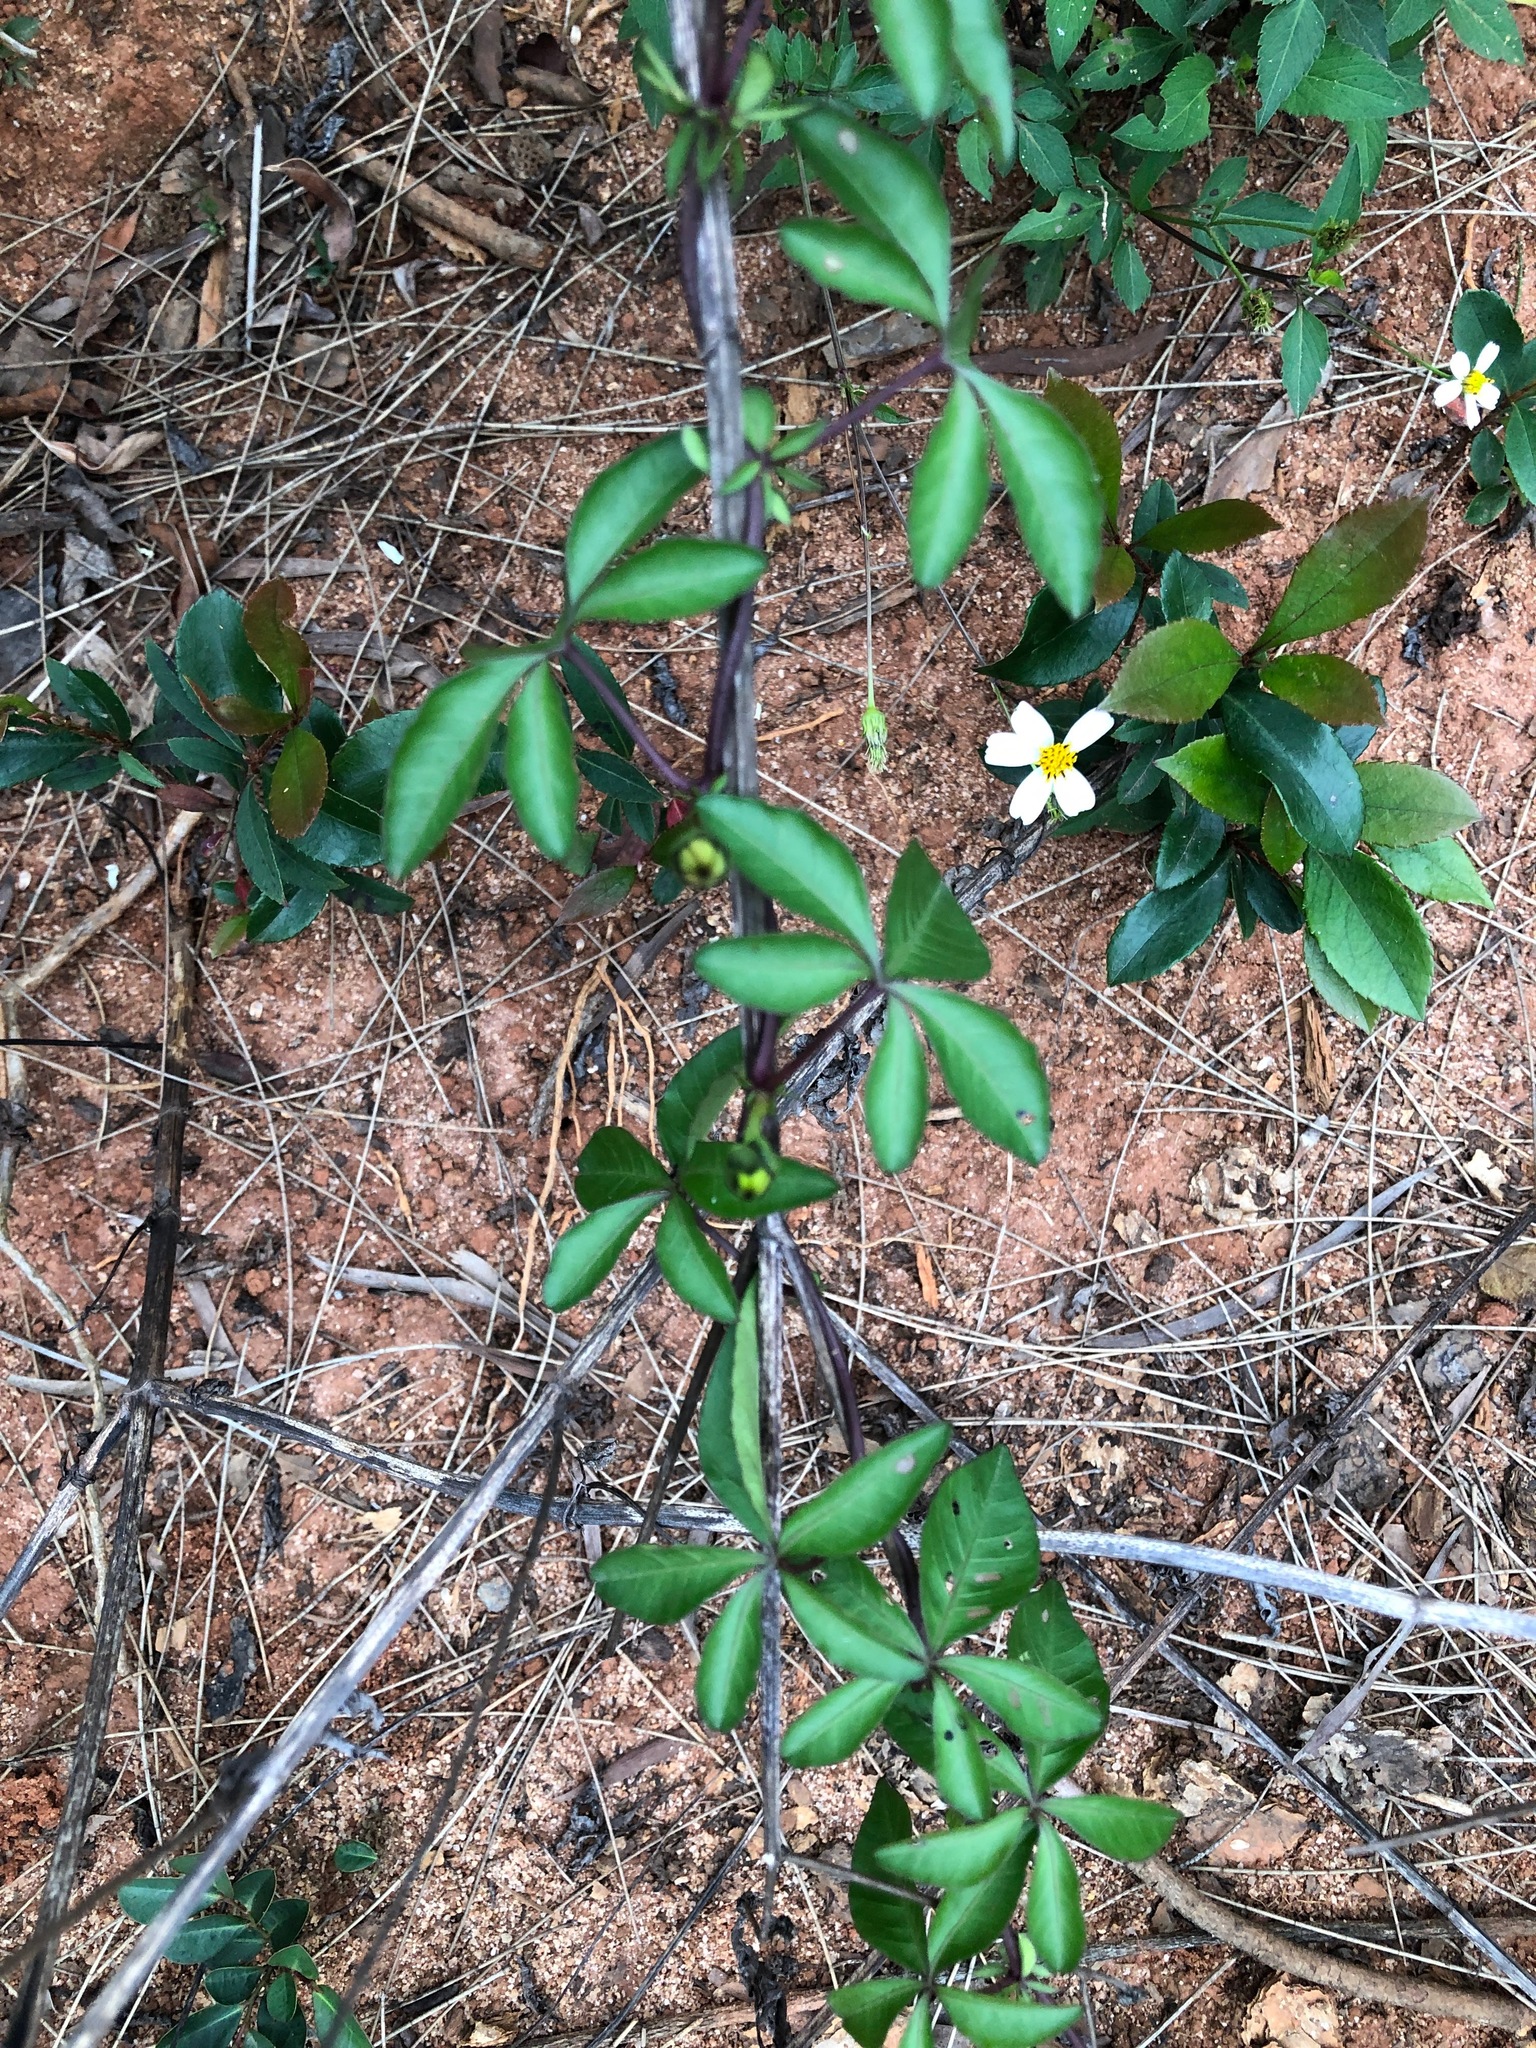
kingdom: Plantae
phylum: Tracheophyta
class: Magnoliopsida
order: Solanales
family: Convolvulaceae
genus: Ipomoea
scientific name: Ipomoea cairica
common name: Mile a minute vine
